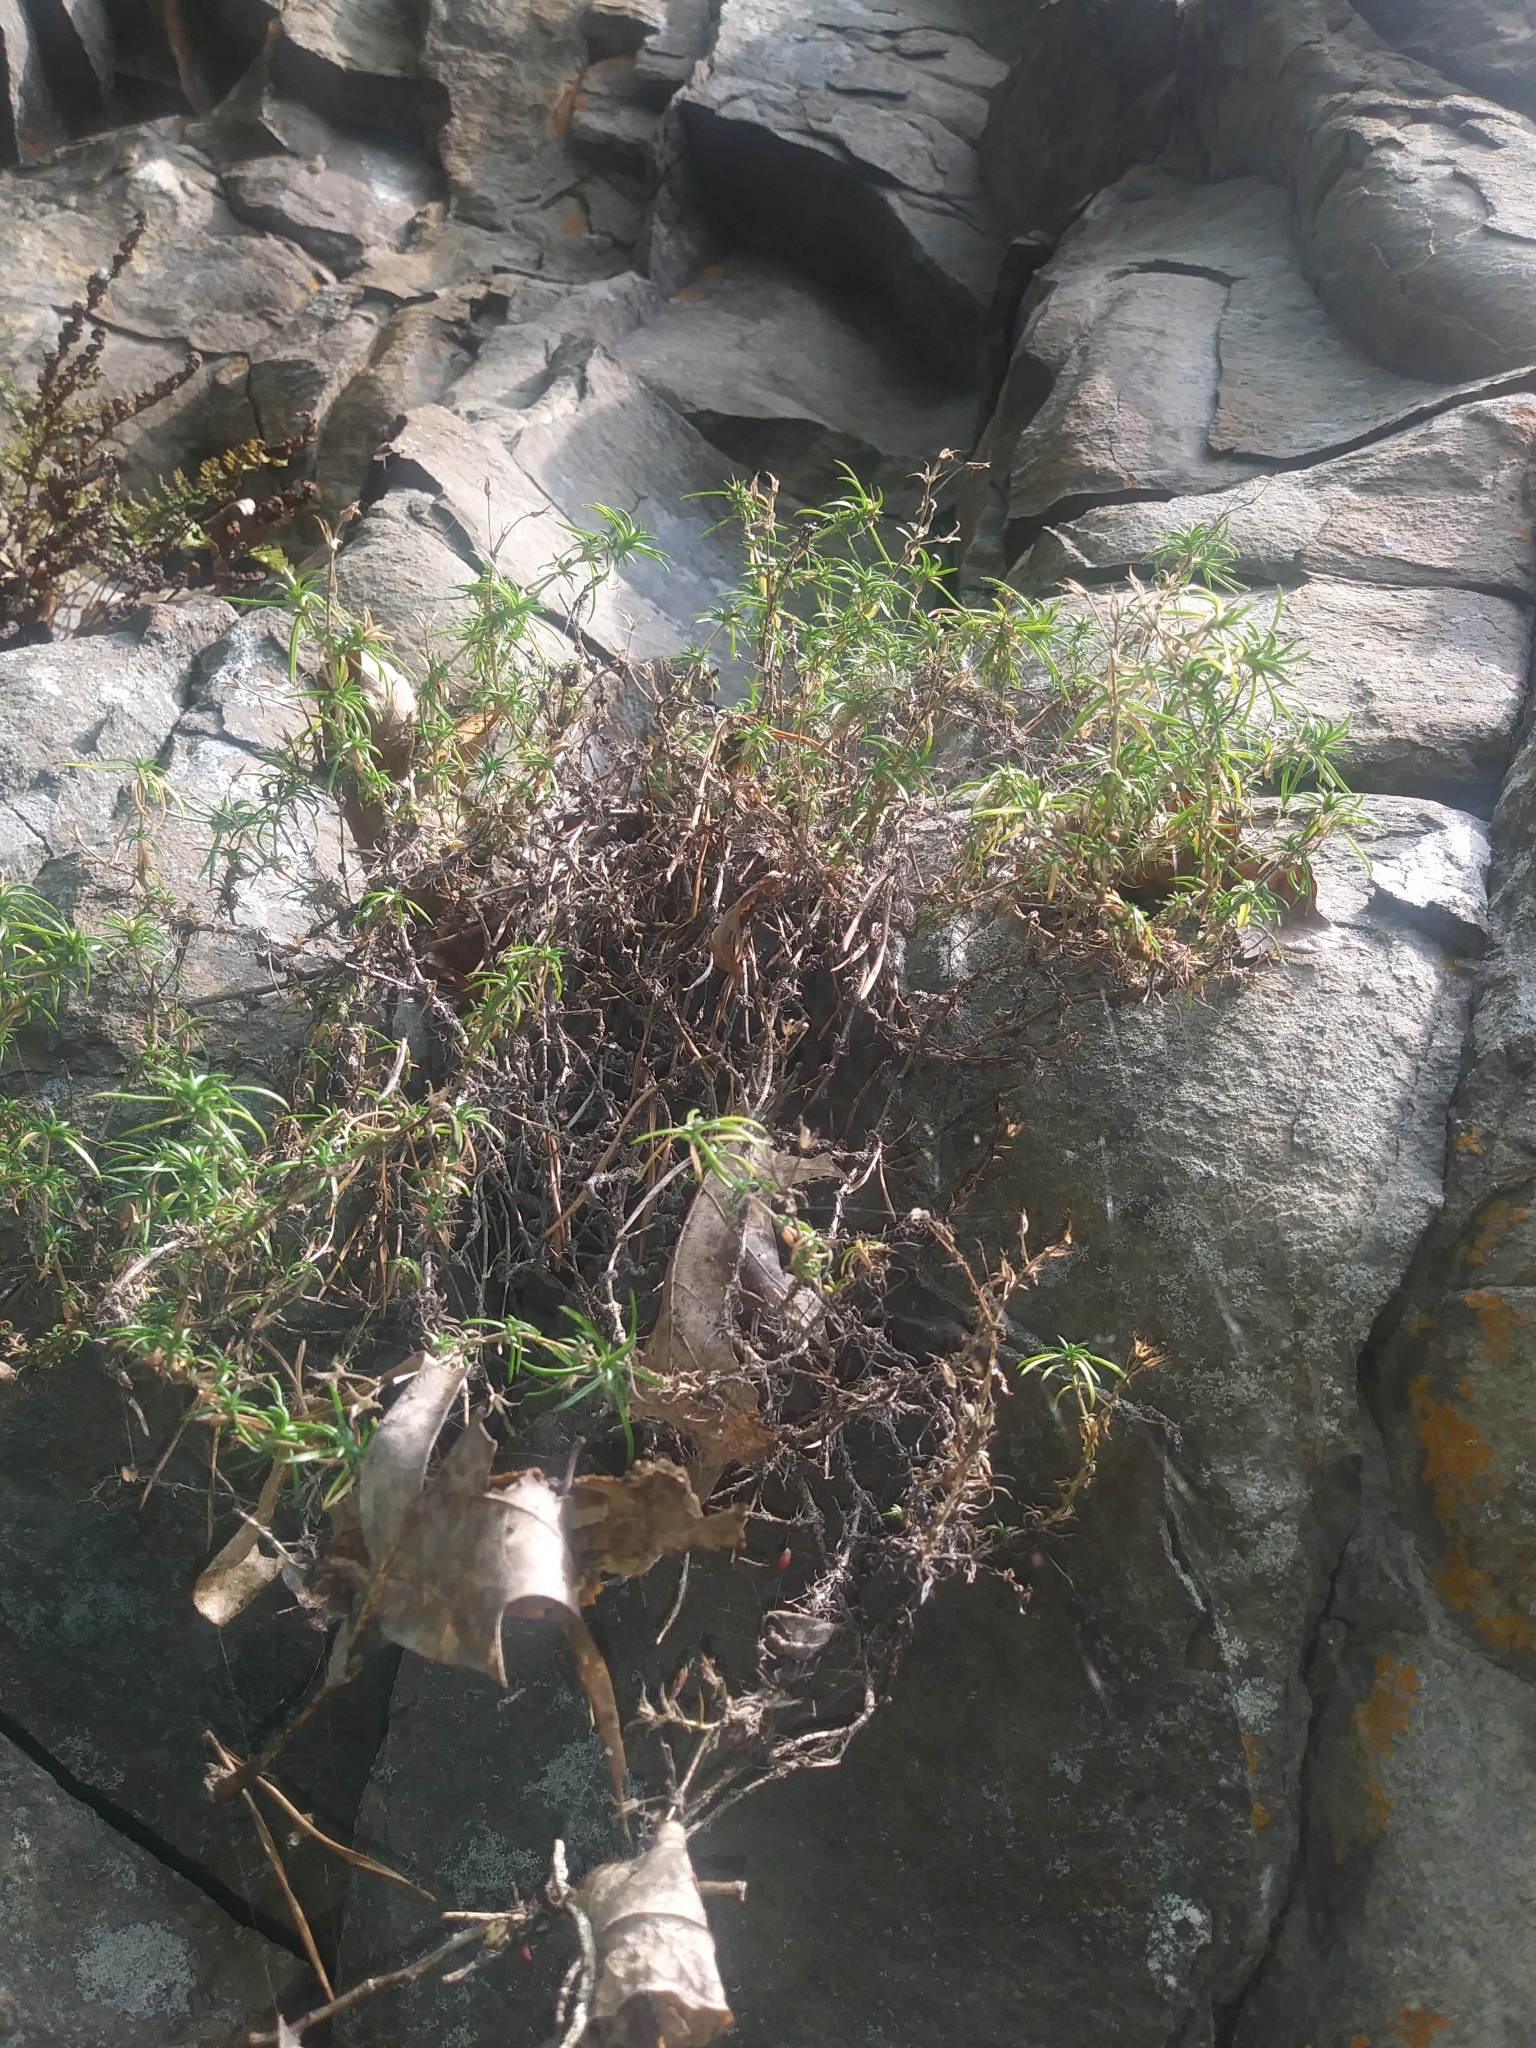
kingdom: Plantae
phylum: Tracheophyta
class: Magnoliopsida
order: Ericales
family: Polemoniaceae
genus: Phlox
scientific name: Phlox subulata
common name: Moss phlox
